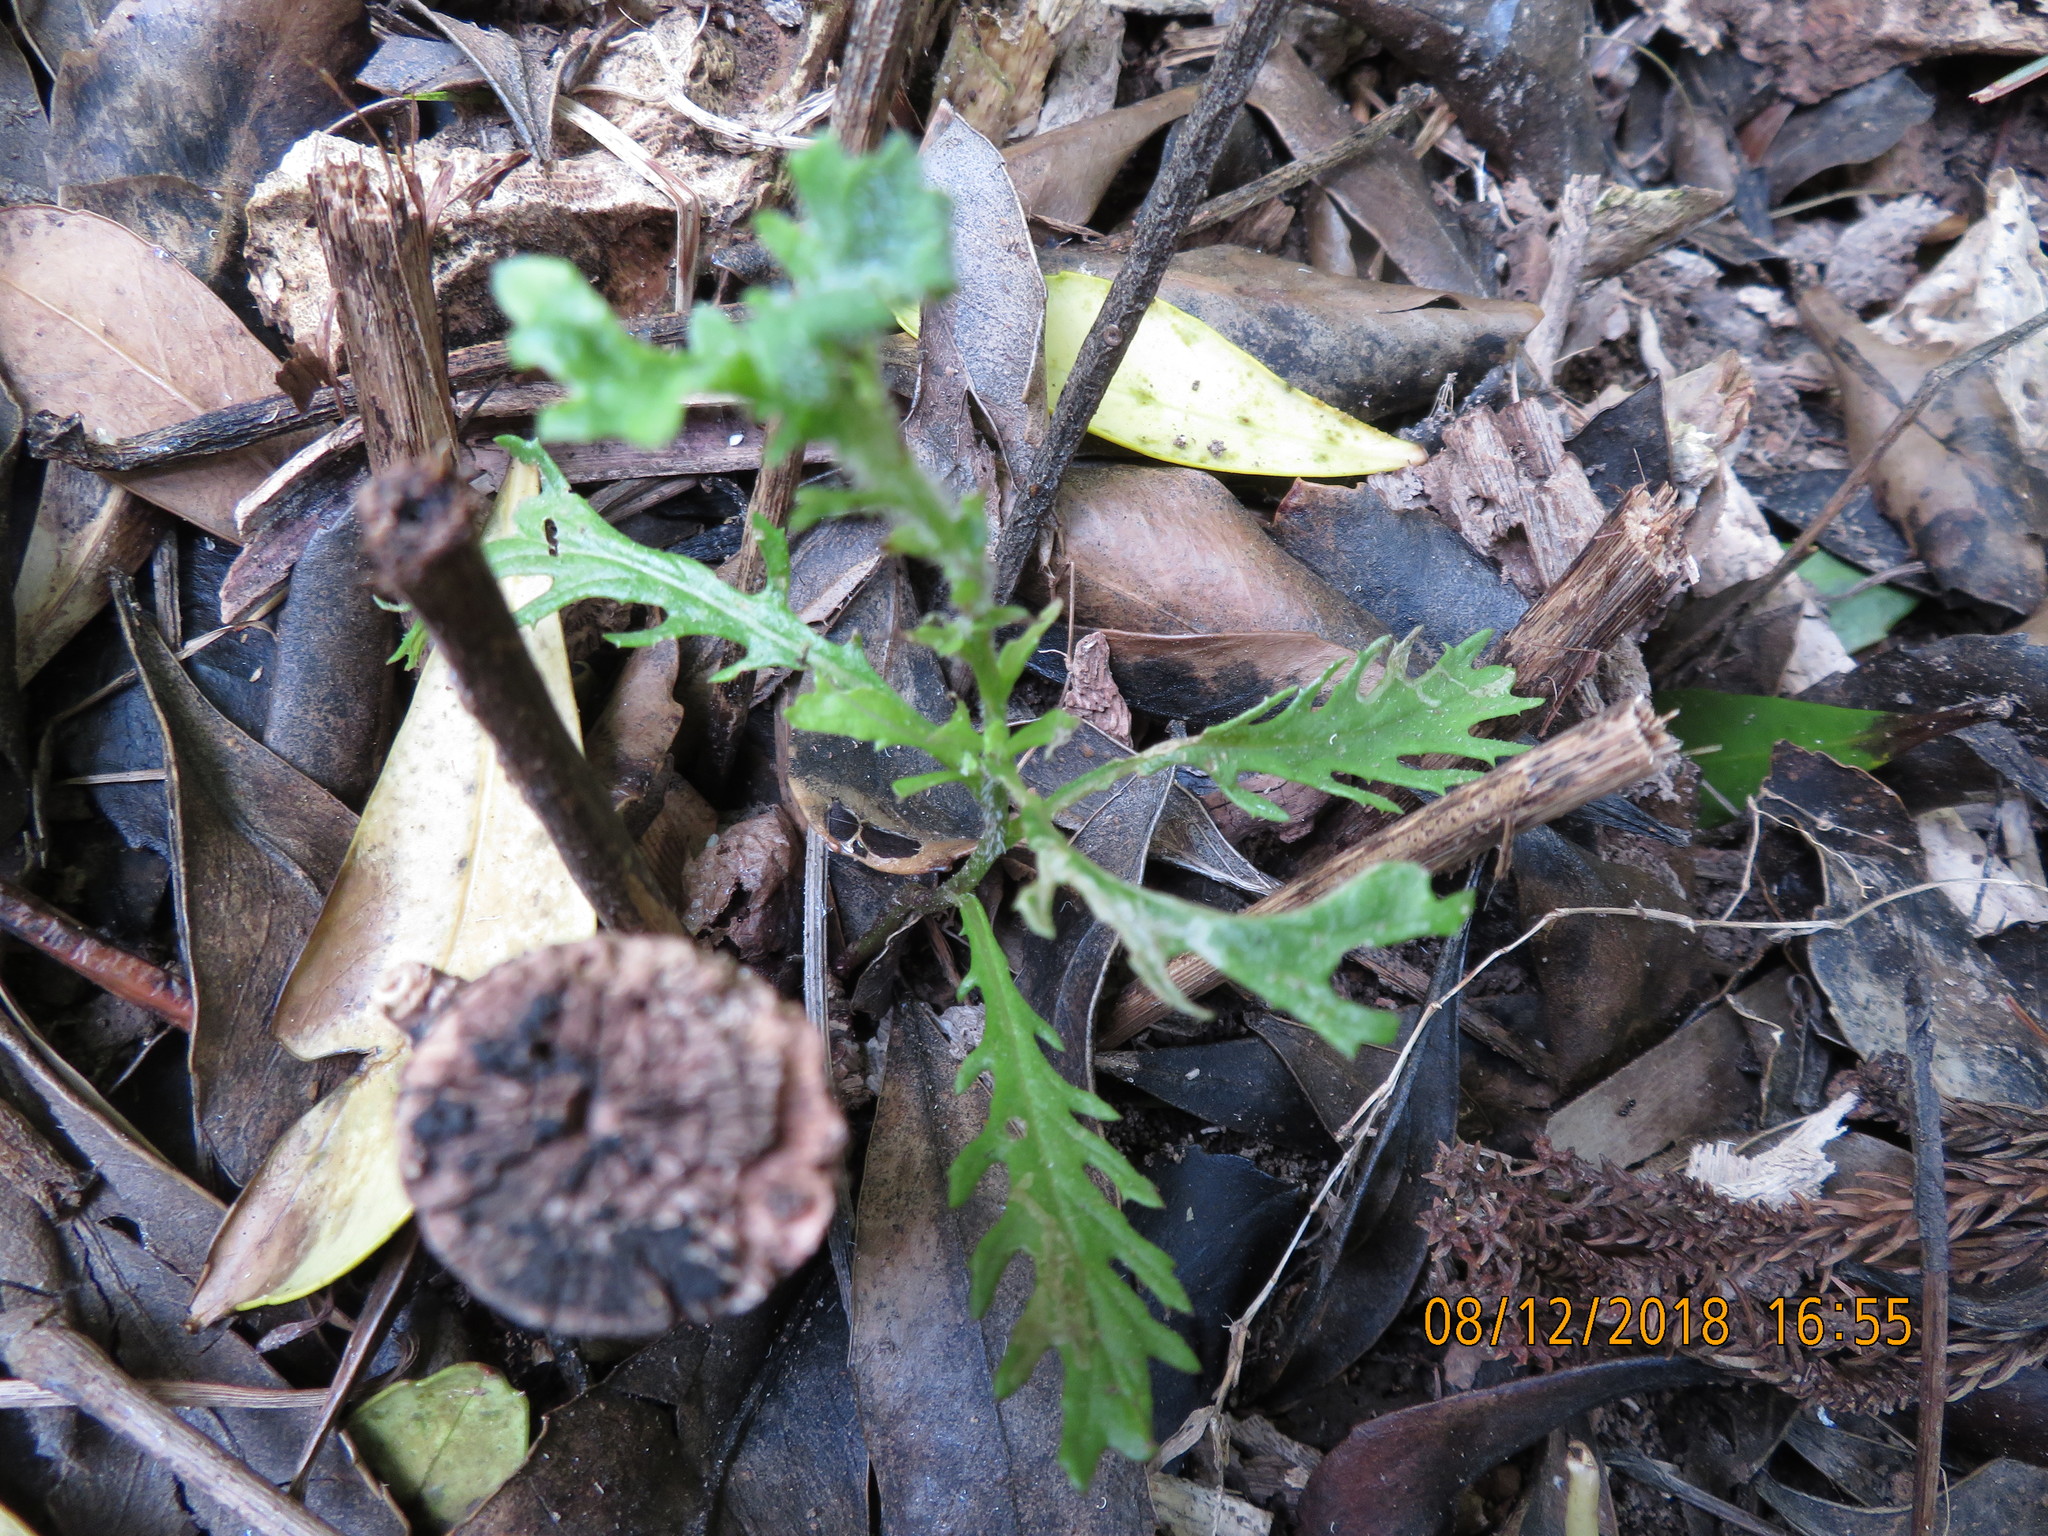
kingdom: Plantae
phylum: Tracheophyta
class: Magnoliopsida
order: Asterales
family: Asteraceae
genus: Senecio
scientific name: Senecio esleri
